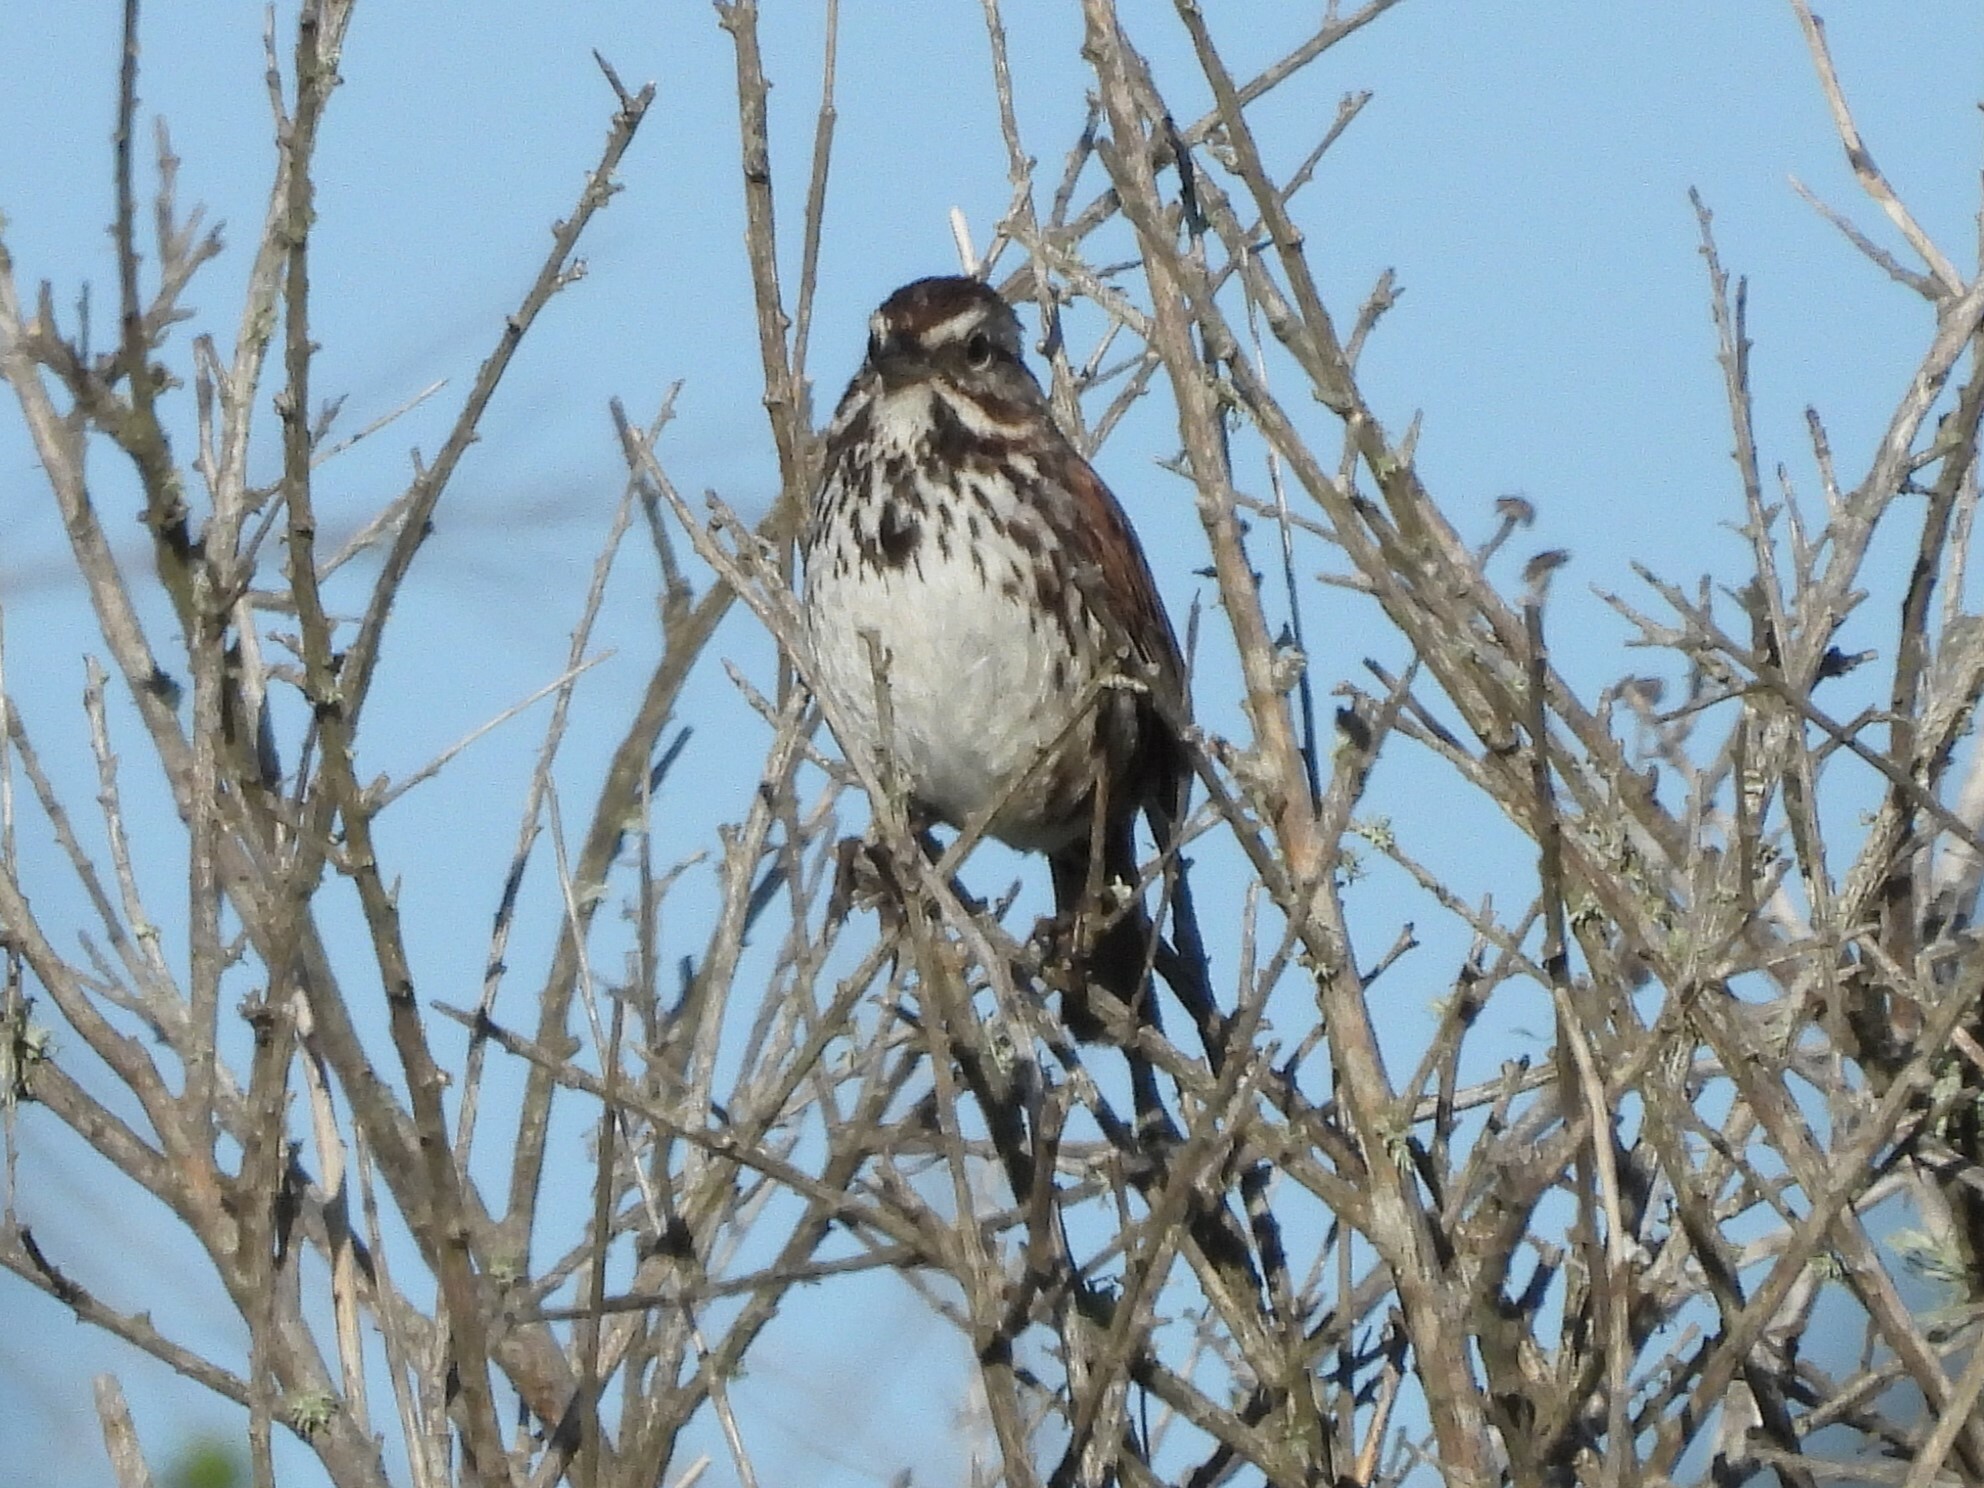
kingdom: Animalia
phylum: Chordata
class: Aves
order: Passeriformes
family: Passerellidae
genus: Melospiza
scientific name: Melospiza melodia
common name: Song sparrow
